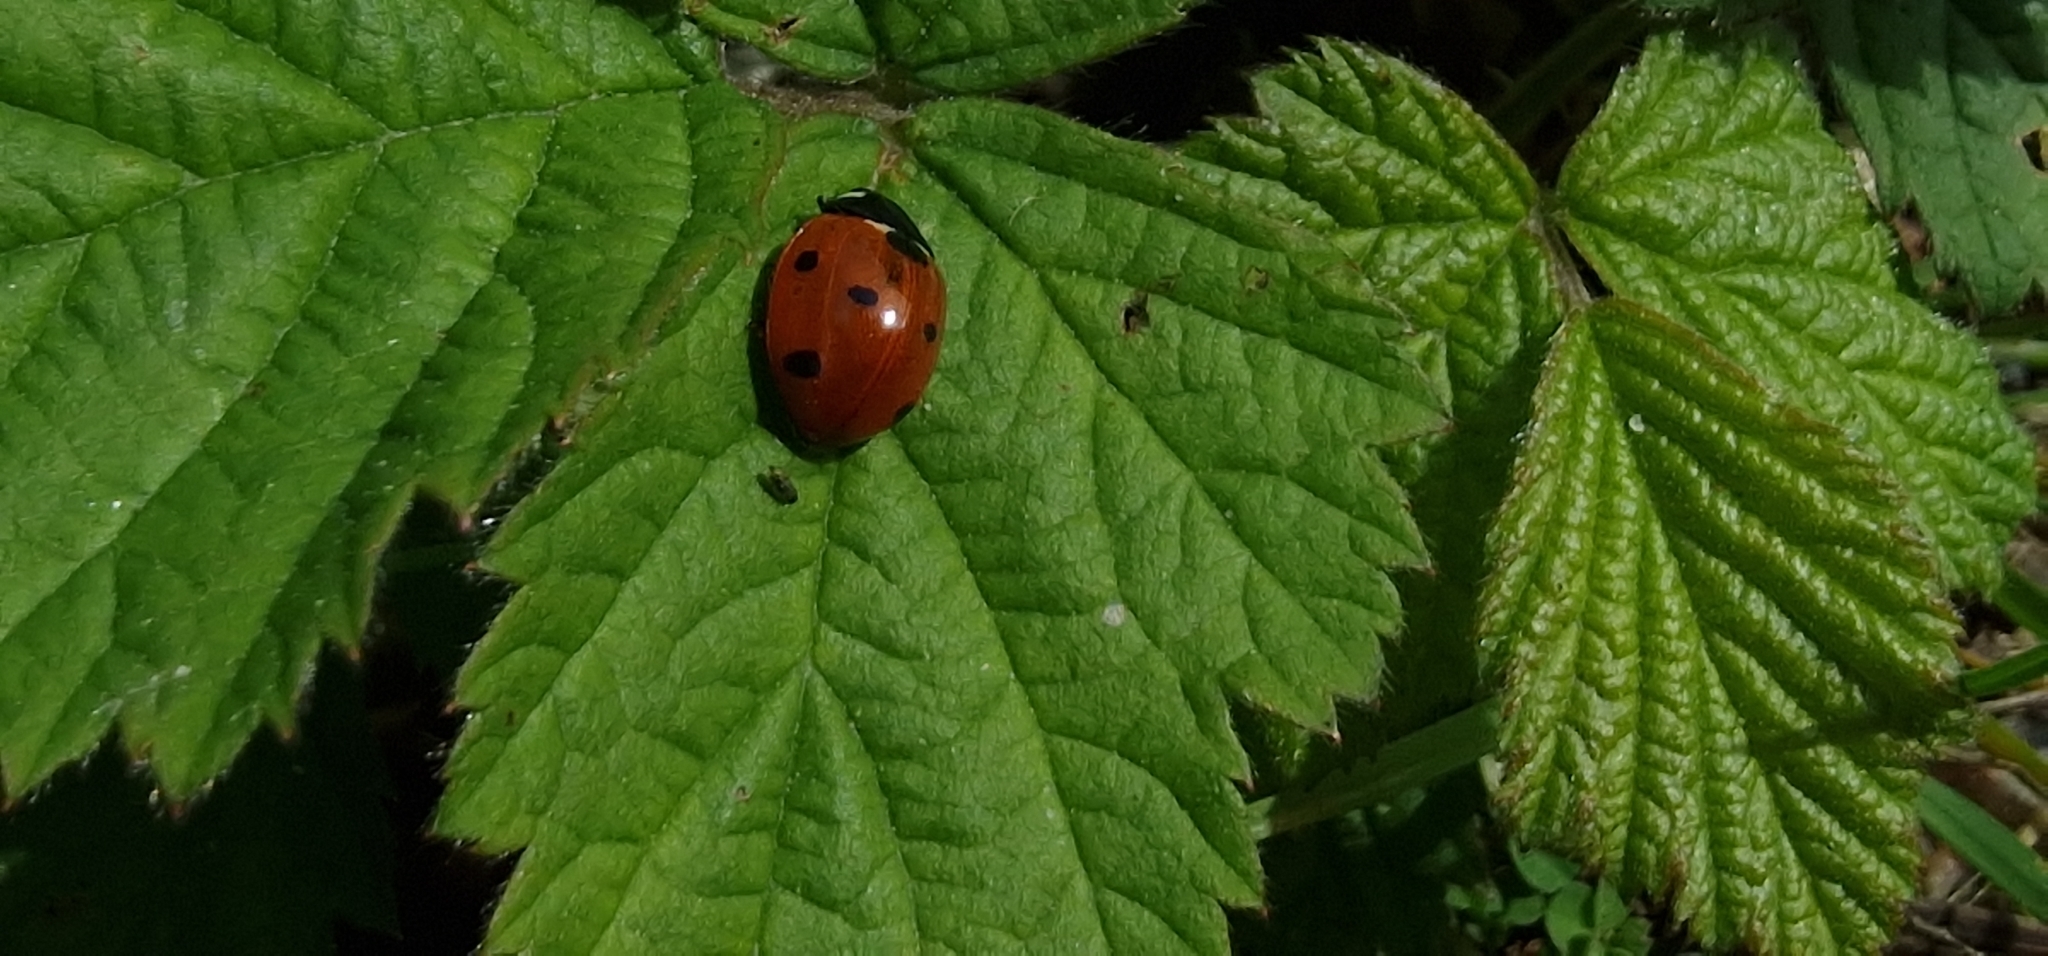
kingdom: Animalia
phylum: Arthropoda
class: Insecta
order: Coleoptera
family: Coccinellidae
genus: Coccinella
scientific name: Coccinella septempunctata
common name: Sevenspotted lady beetle
